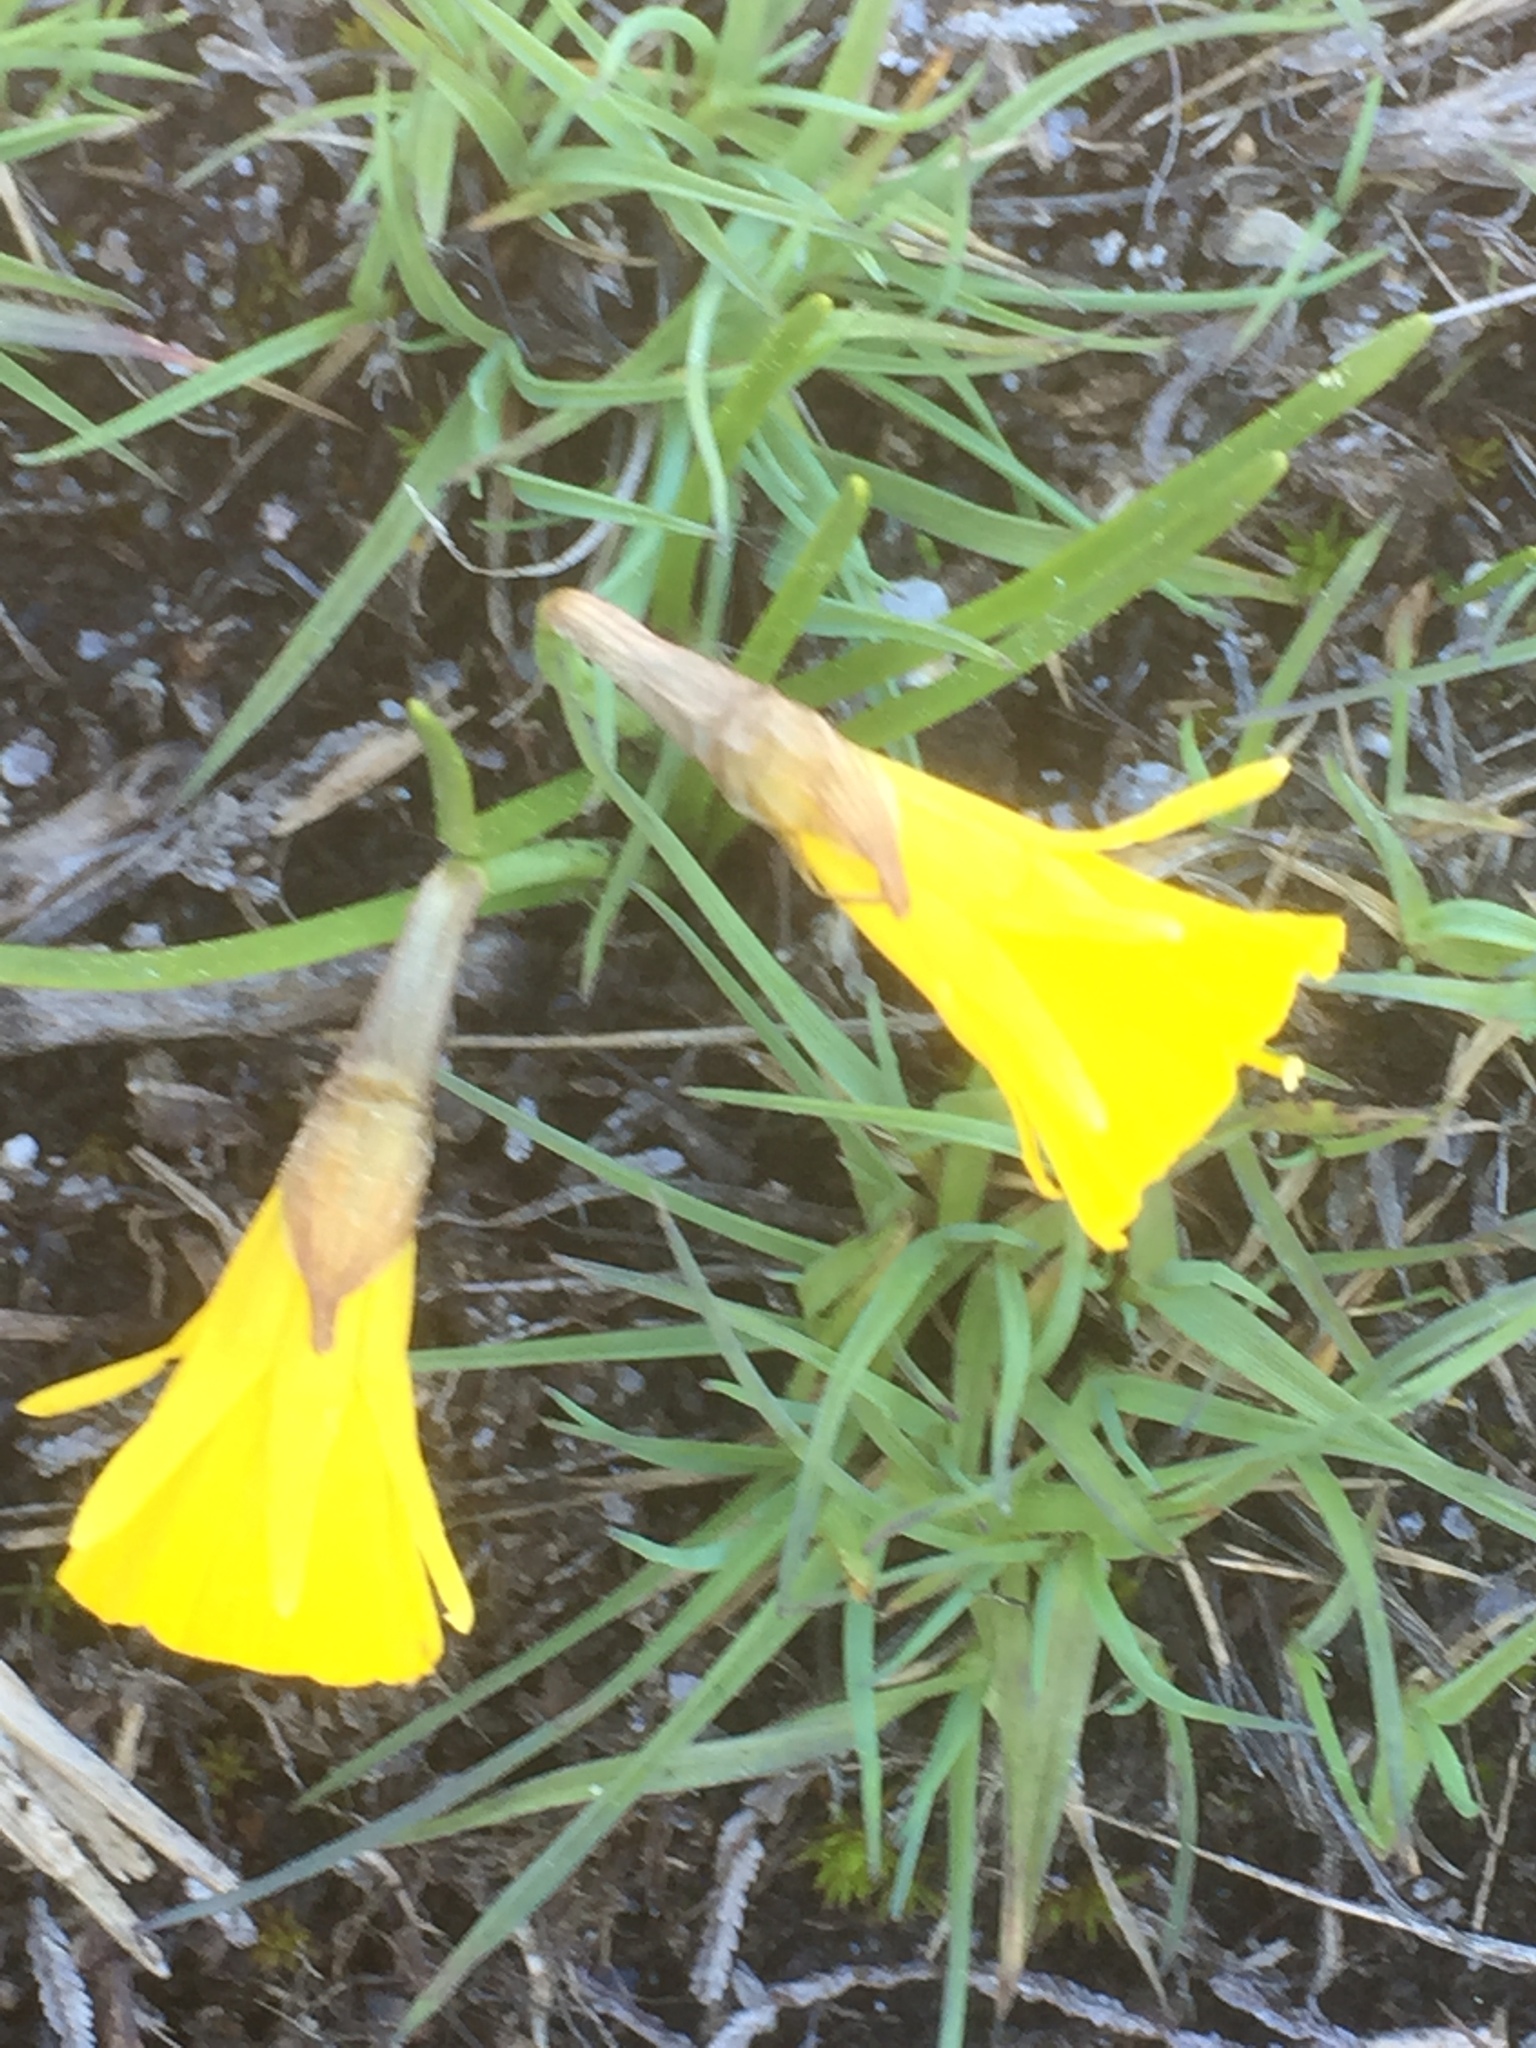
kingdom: Plantae
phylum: Tracheophyta
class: Liliopsida
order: Asparagales
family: Amaryllidaceae
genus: Narcissus
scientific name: Narcissus bulbocodium
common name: Hoop-petticoat daffodil
